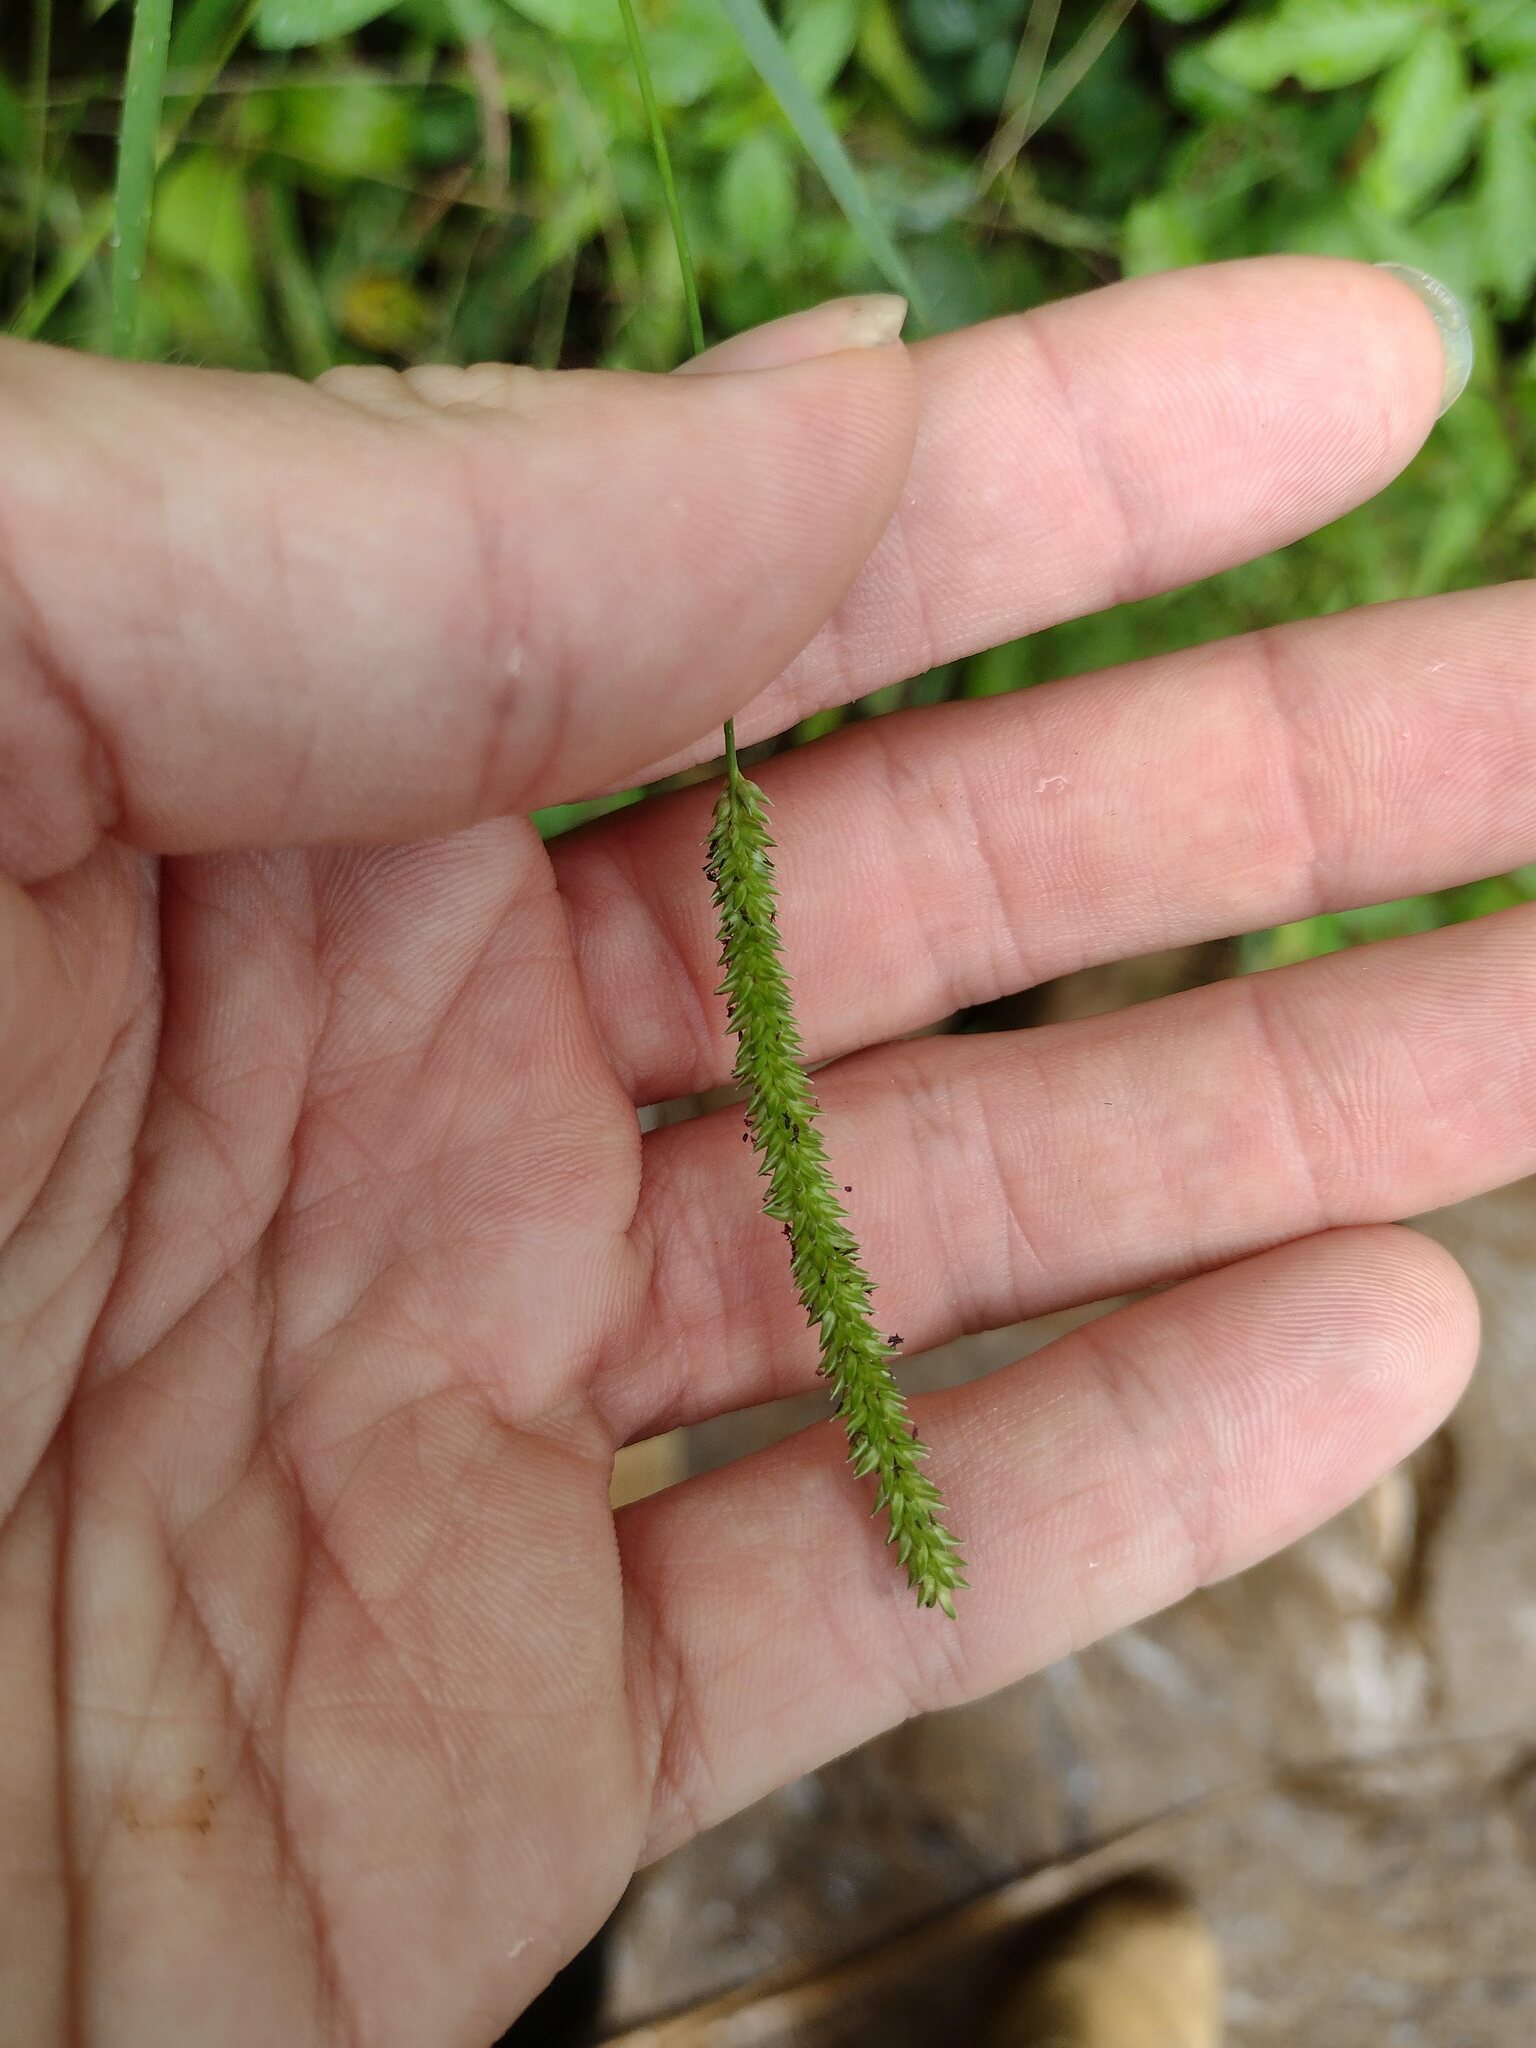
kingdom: Plantae
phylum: Tracheophyta
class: Liliopsida
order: Poales
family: Poaceae
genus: Sacciolepis
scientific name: Sacciolepis indica
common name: Glenwoodgrass
